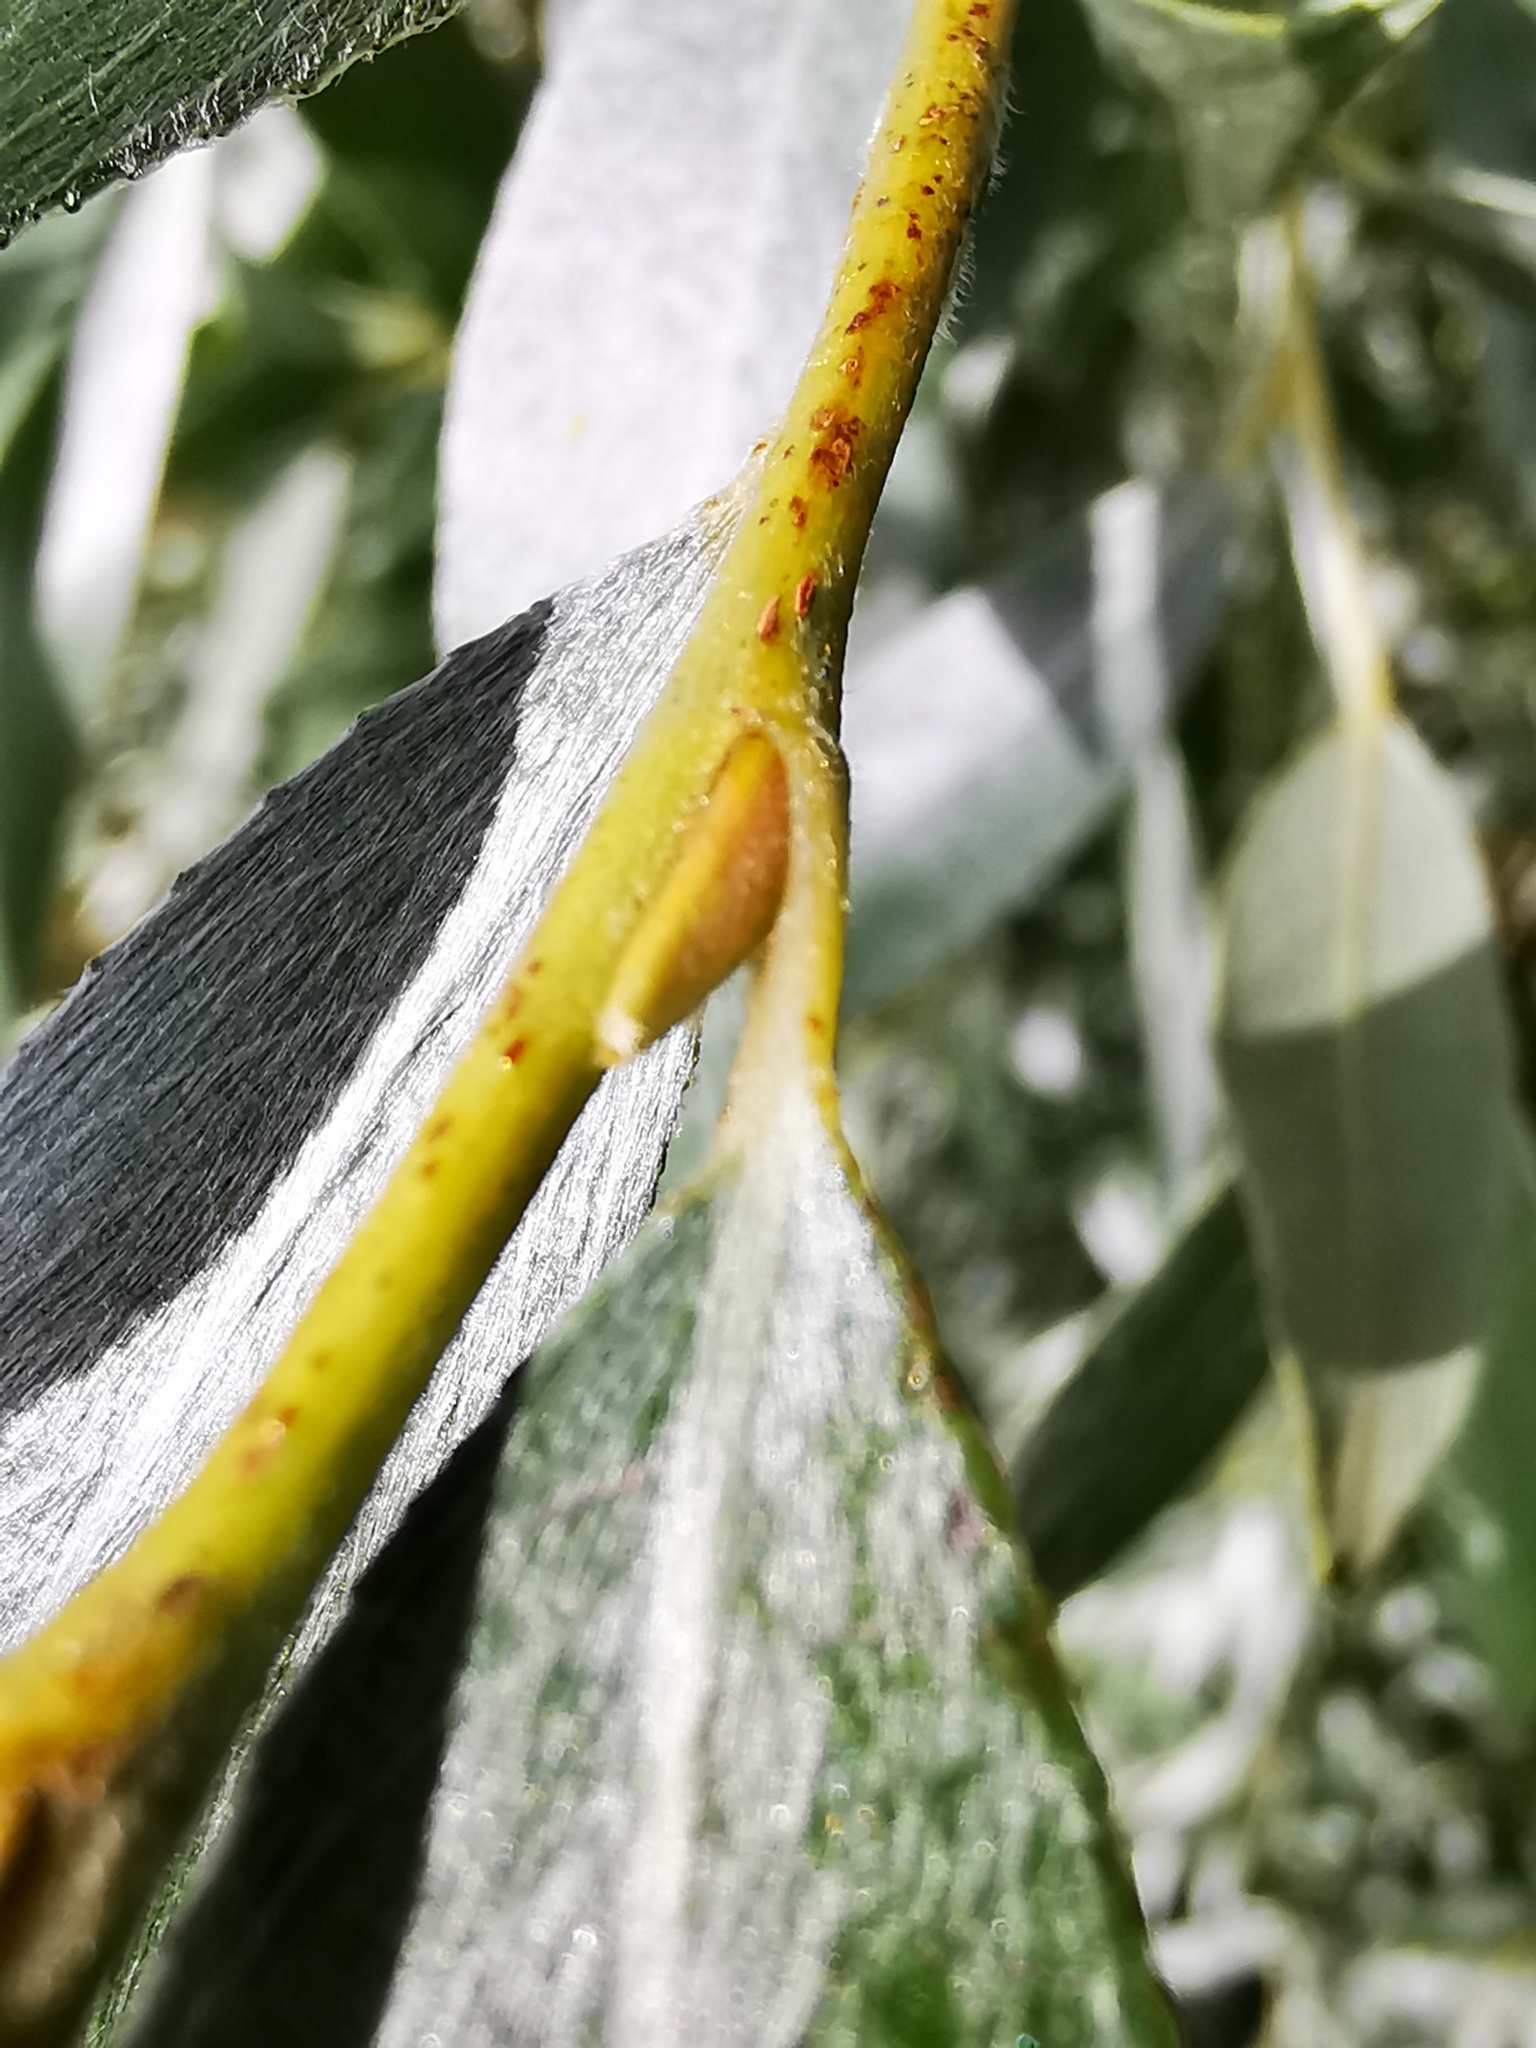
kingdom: Plantae
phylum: Tracheophyta
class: Magnoliopsida
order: Malpighiales
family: Salicaceae
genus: Salix
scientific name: Salix alba
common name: White willow
